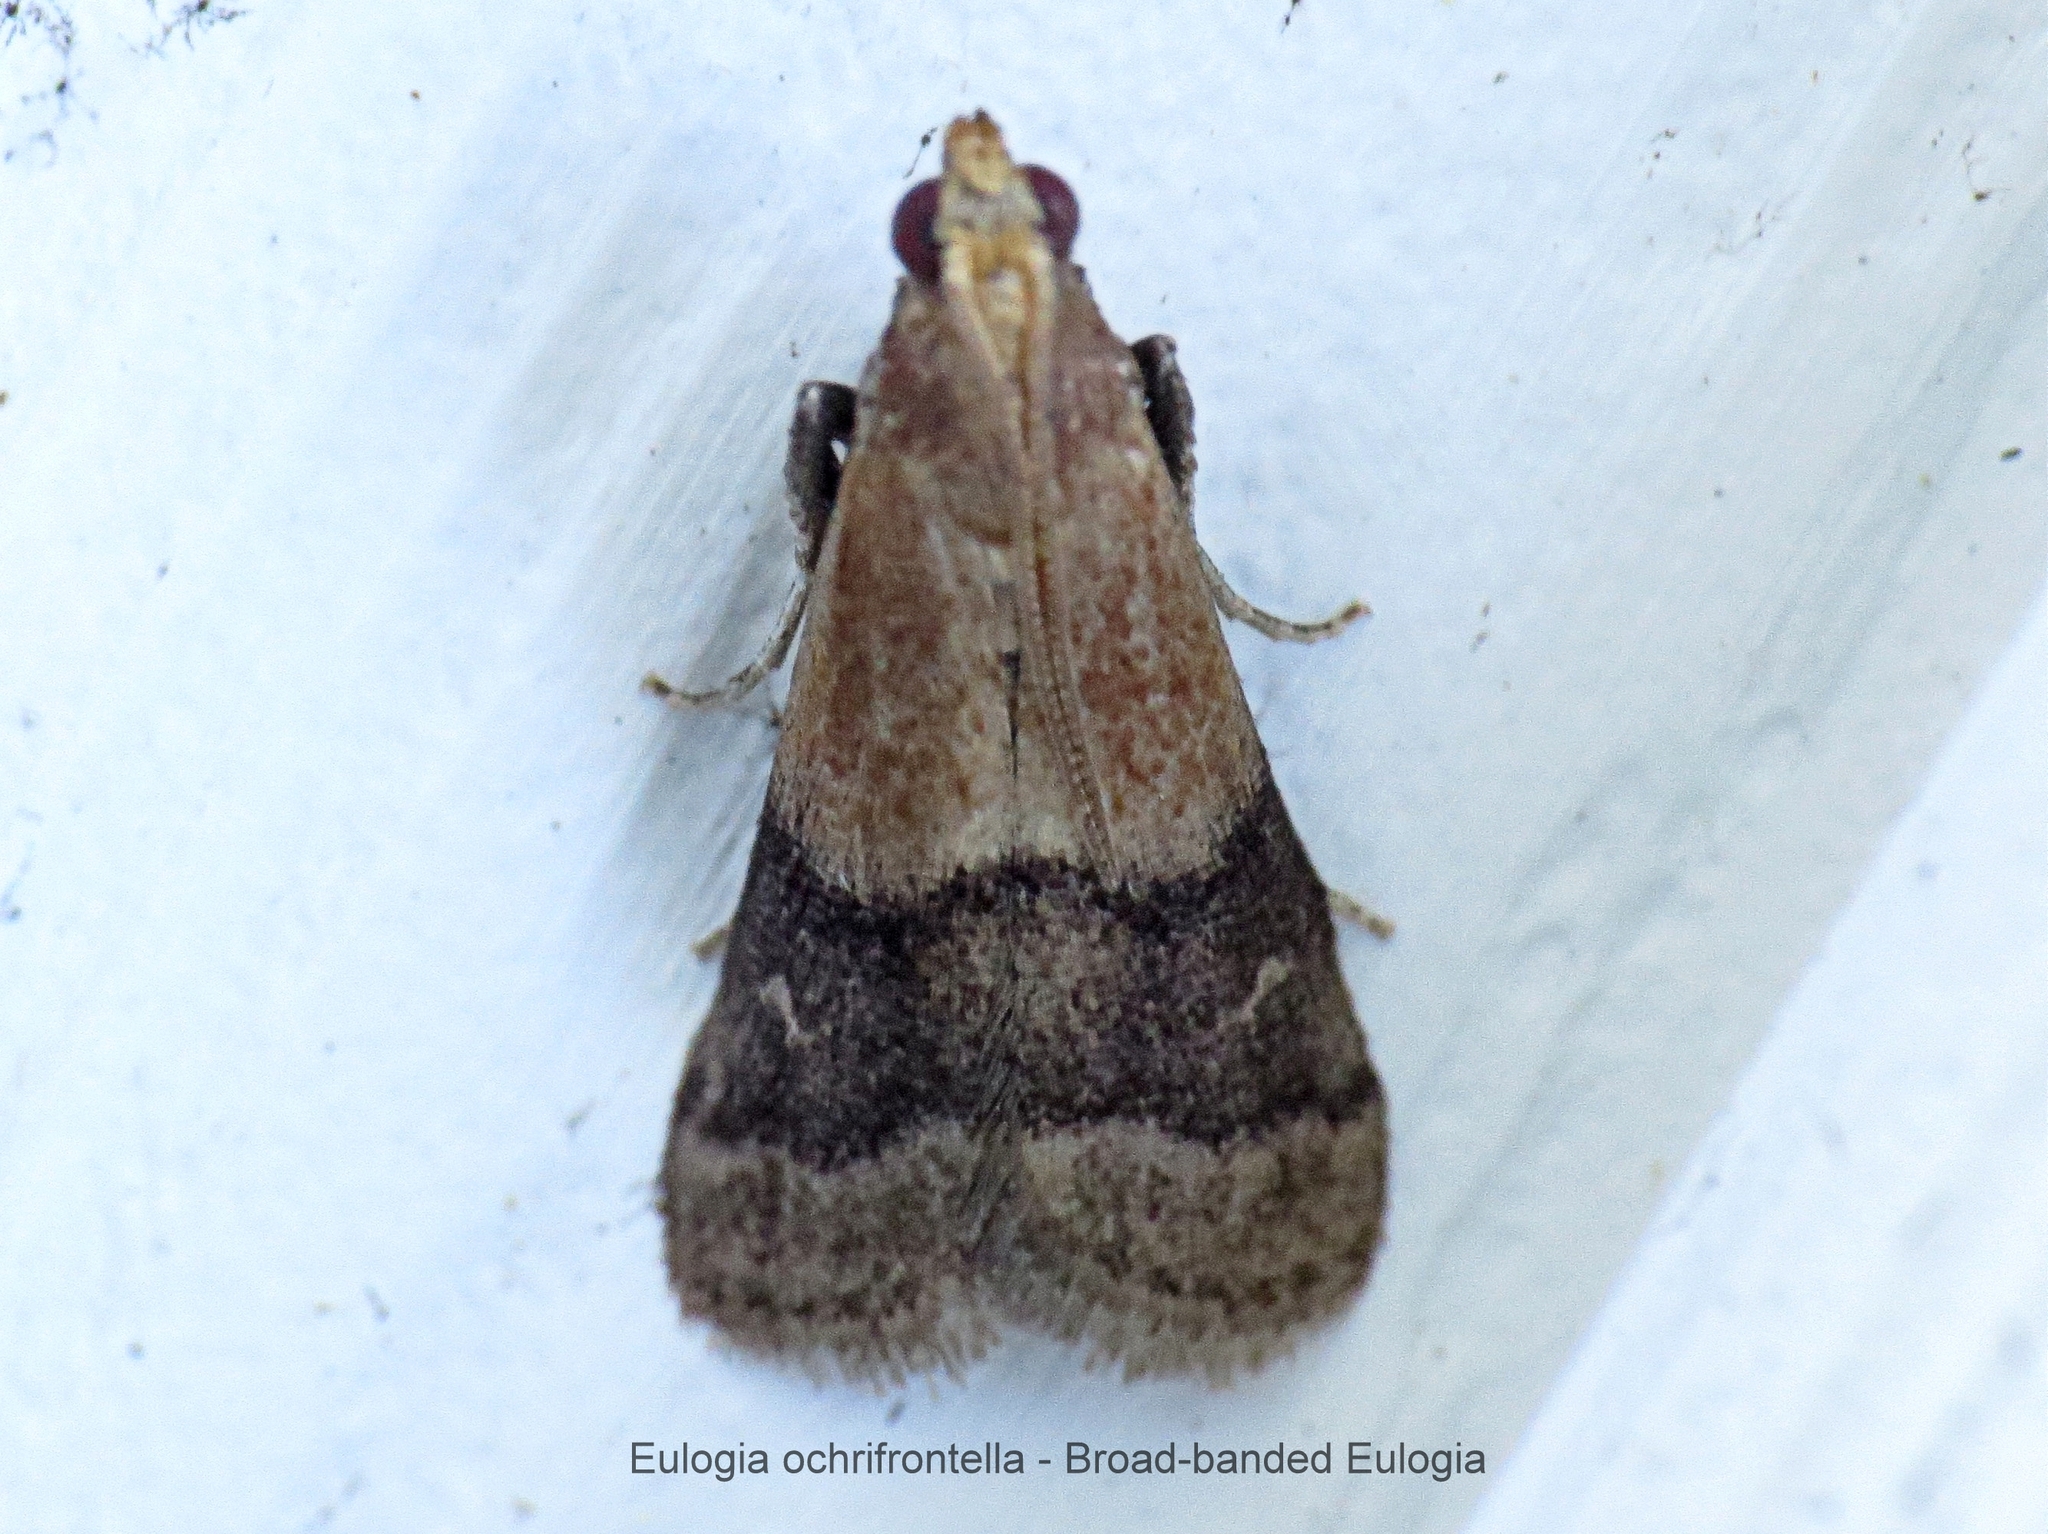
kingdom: Animalia
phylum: Arthropoda
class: Insecta
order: Lepidoptera
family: Pyralidae
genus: Eulogia
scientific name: Eulogia ochrifrontella
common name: Broad-banded eulogia moth
